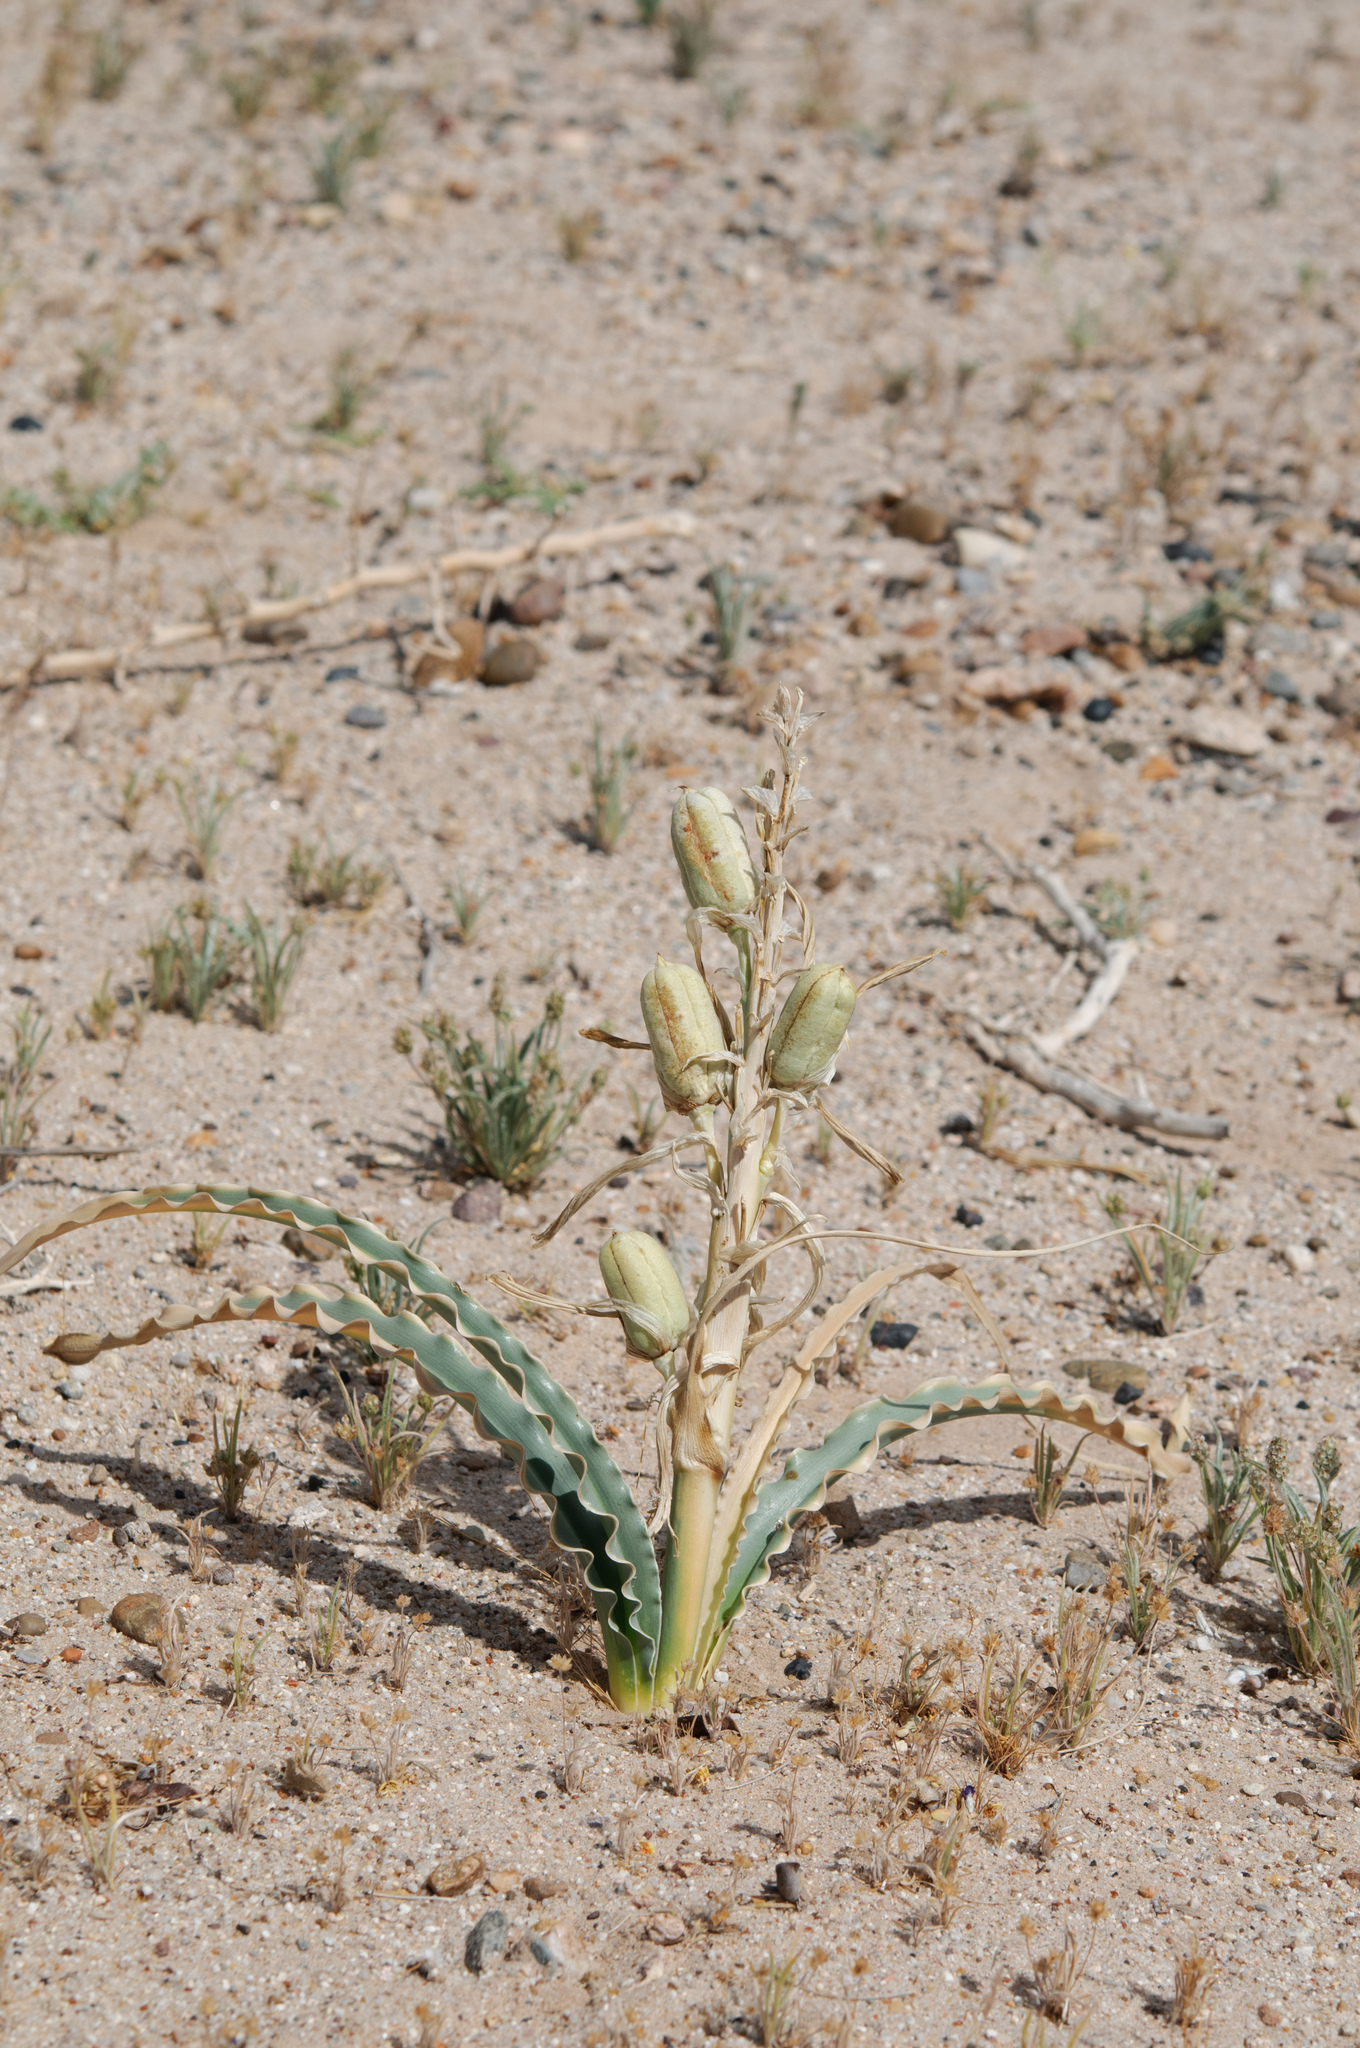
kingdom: Plantae
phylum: Tracheophyta
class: Liliopsida
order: Asparagales
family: Asparagaceae
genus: Hesperocallis
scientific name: Hesperocallis undulata
